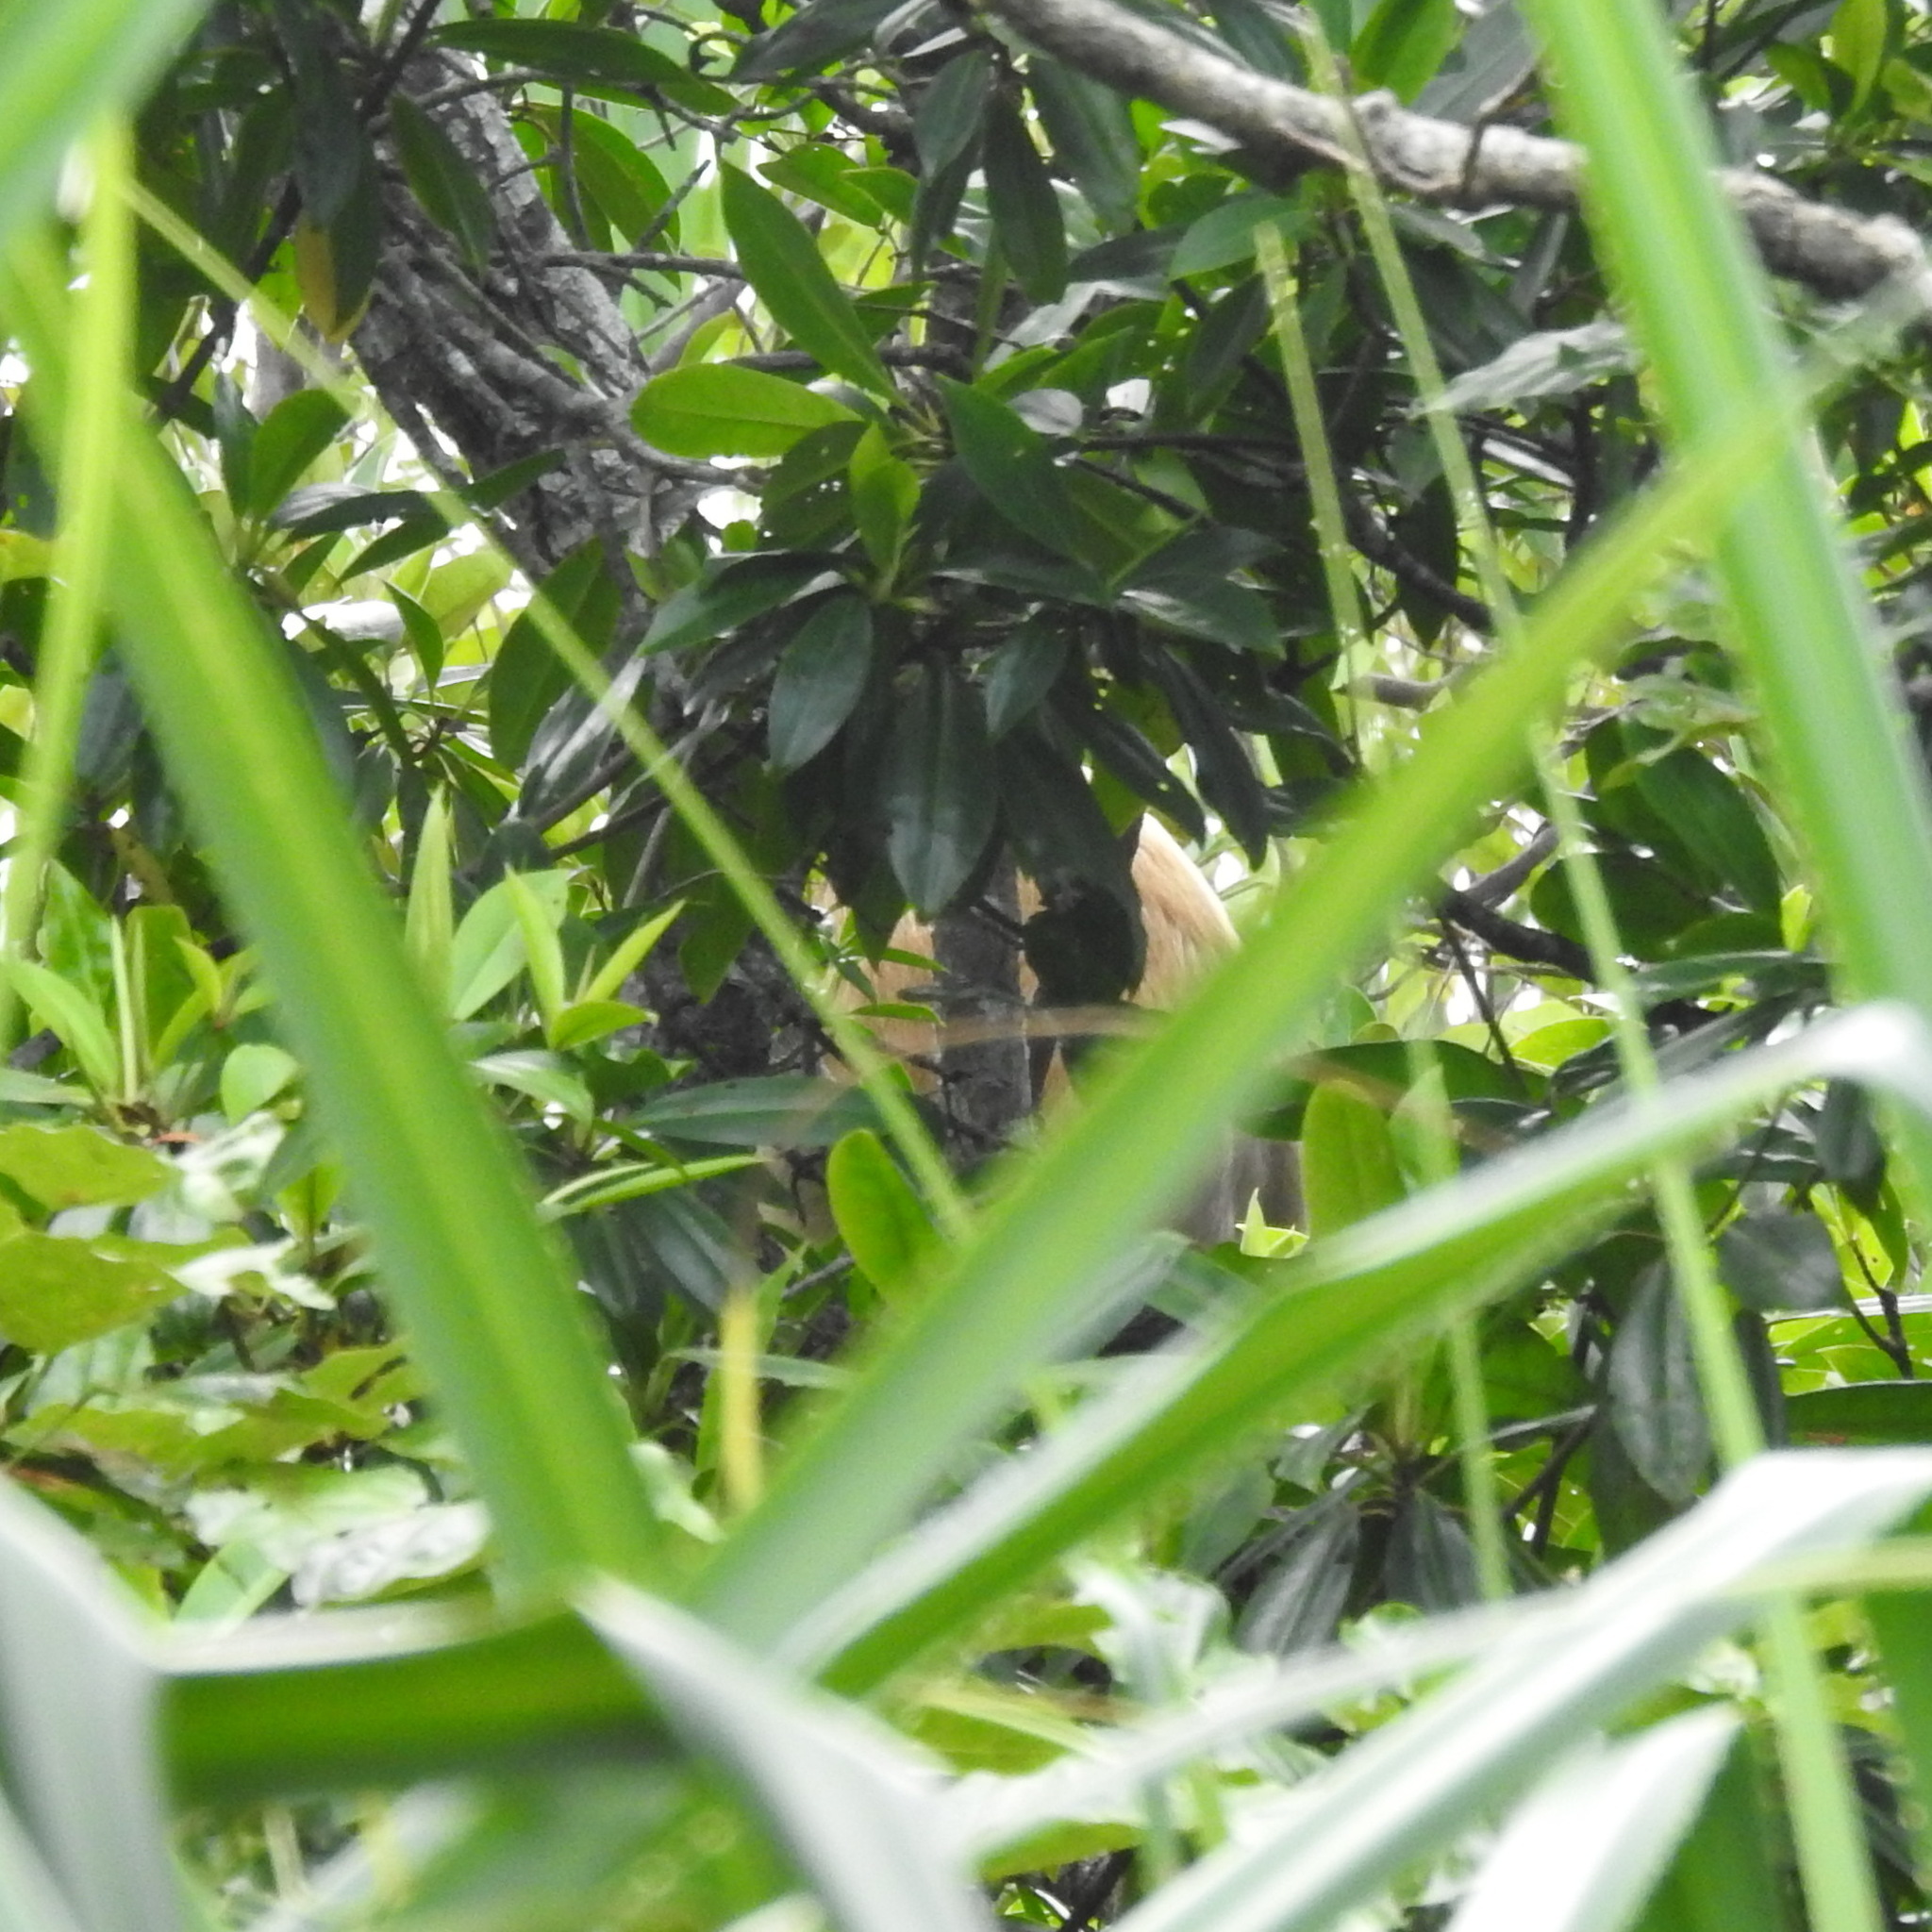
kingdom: Animalia
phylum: Chordata
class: Mammalia
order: Primates
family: Cercopithecidae
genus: Nasalis
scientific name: Nasalis larvatus
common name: Proboscis monkey
